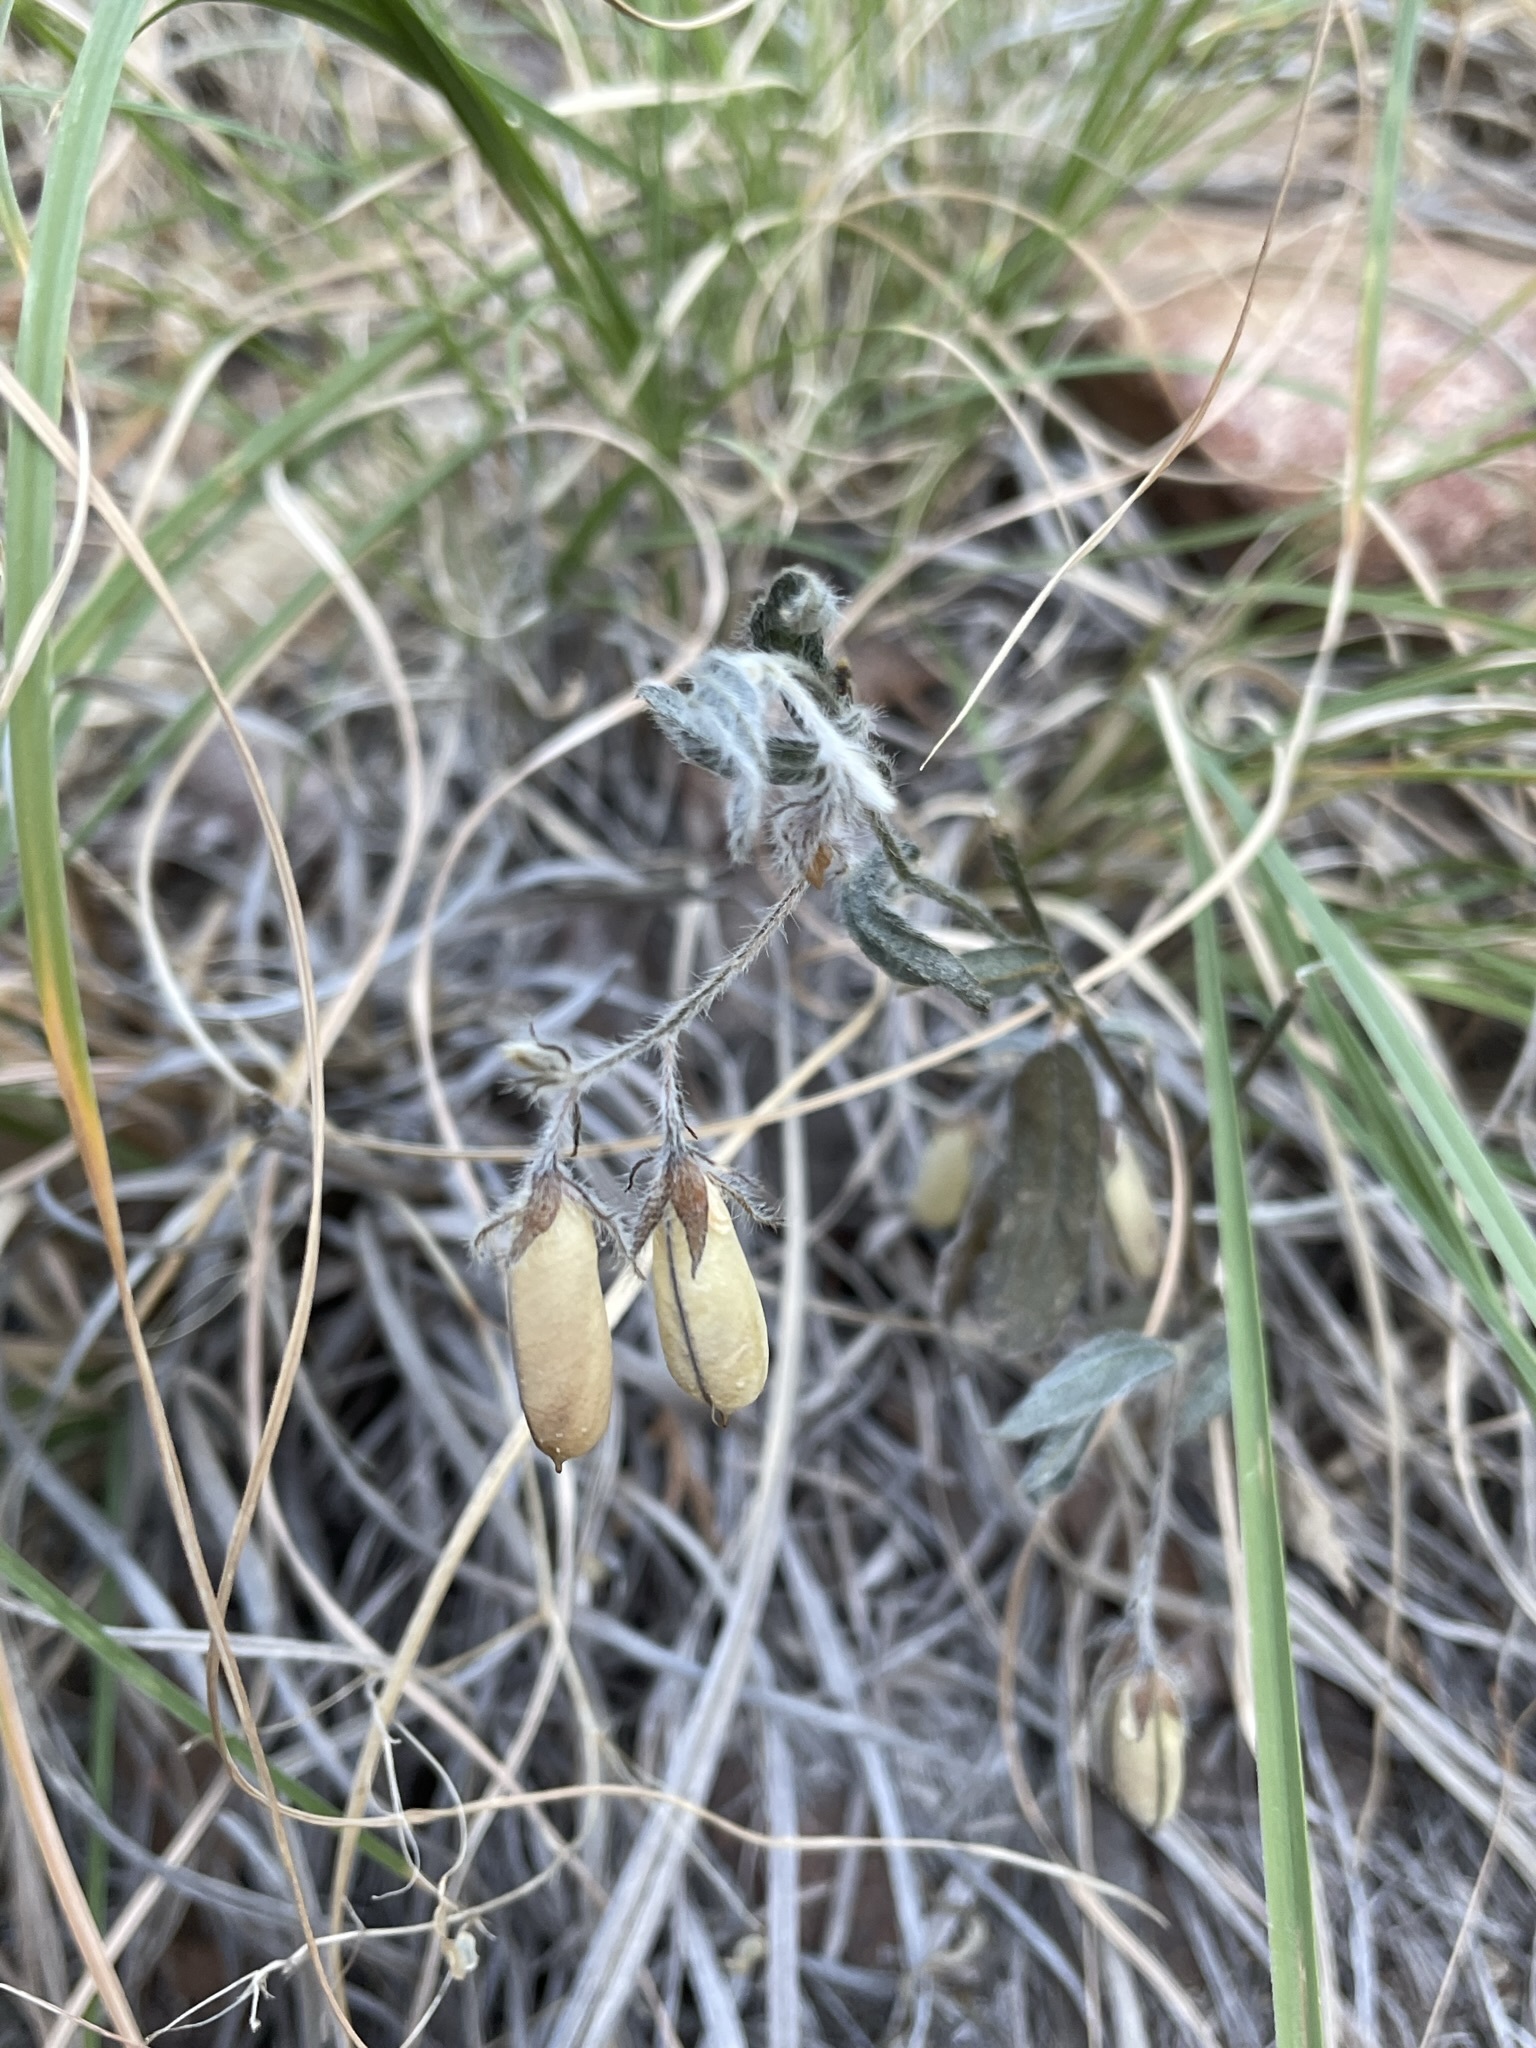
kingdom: Plantae
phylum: Tracheophyta
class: Magnoliopsida
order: Fabales
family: Fabaceae
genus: Crotalaria
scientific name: Crotalaria sagittalis
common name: Arrowhead rattlebox
